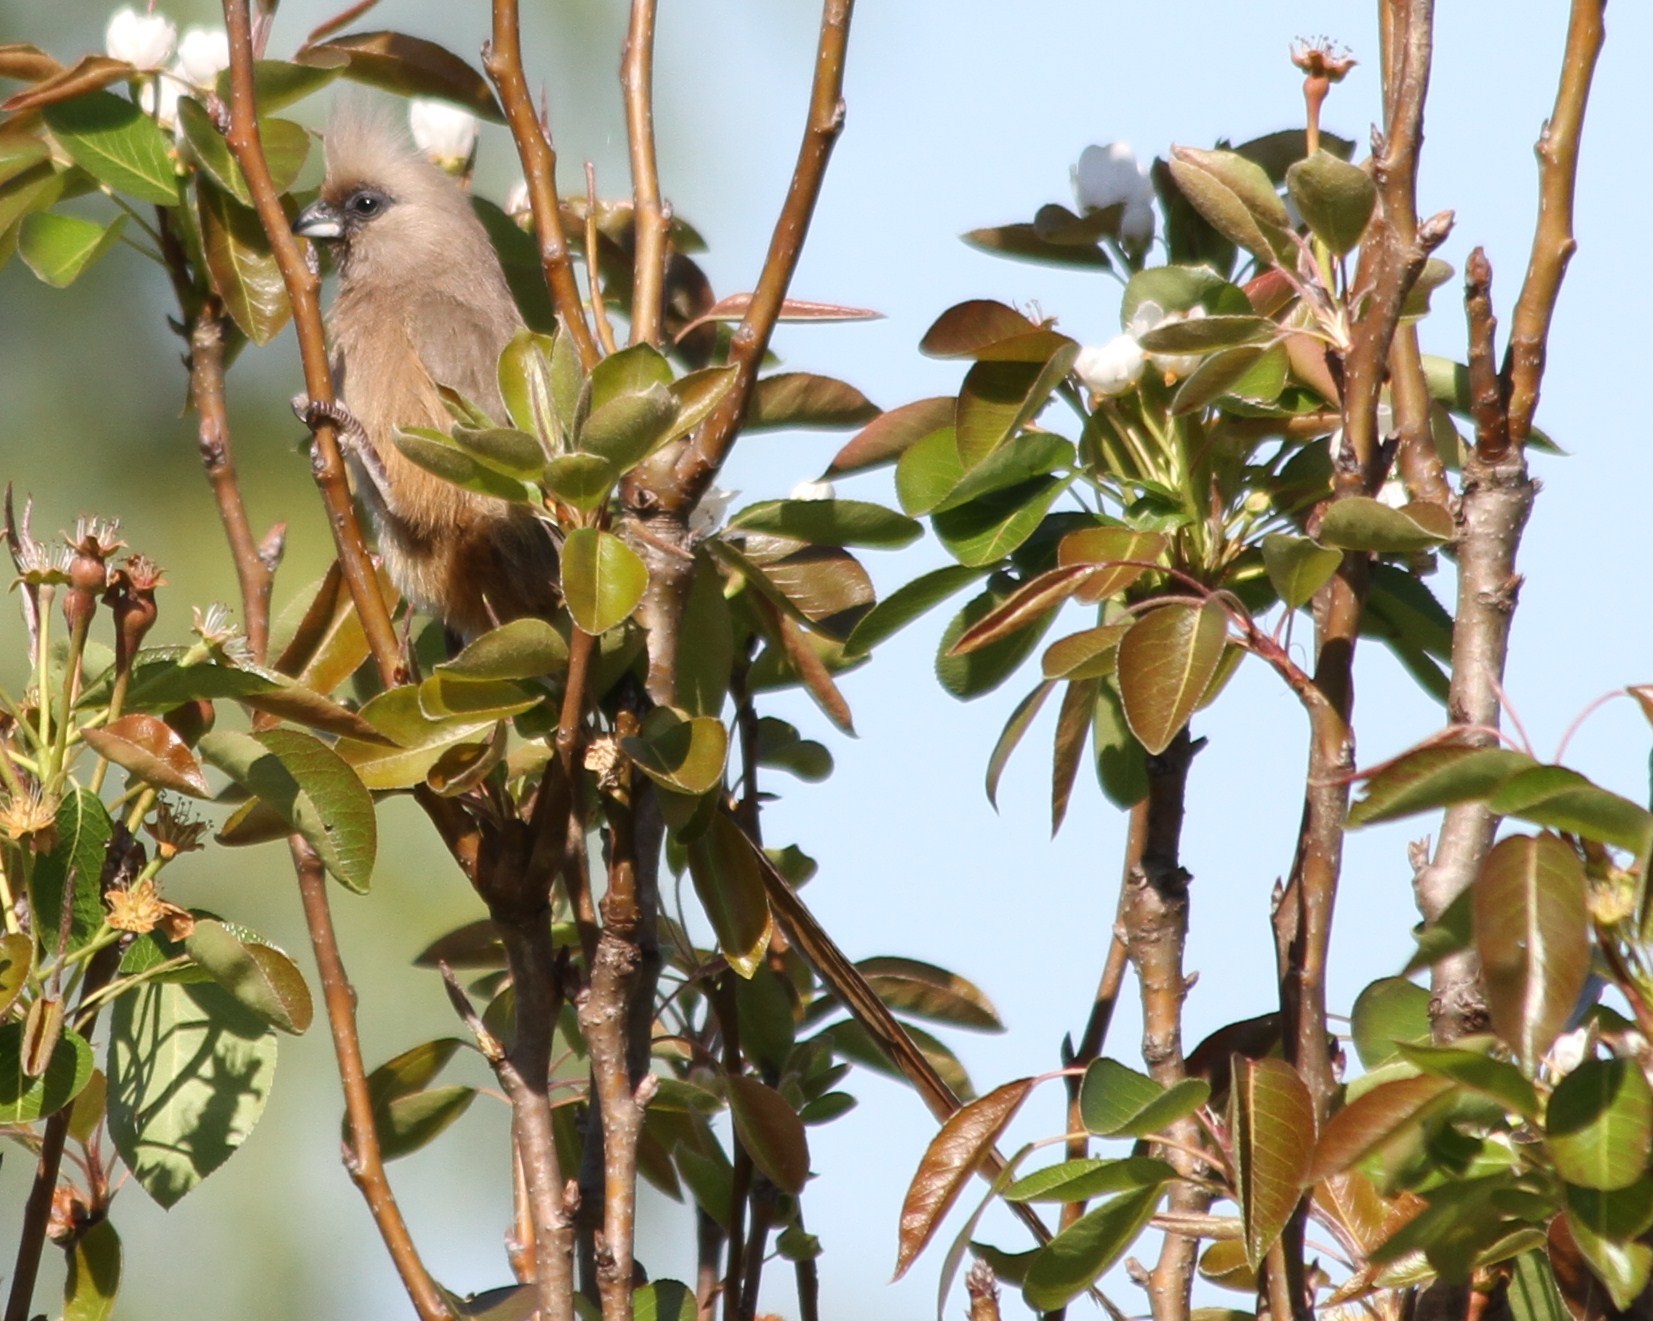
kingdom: Animalia
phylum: Chordata
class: Aves
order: Coliiformes
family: Coliidae
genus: Colius
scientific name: Colius striatus
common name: Speckled mousebird
